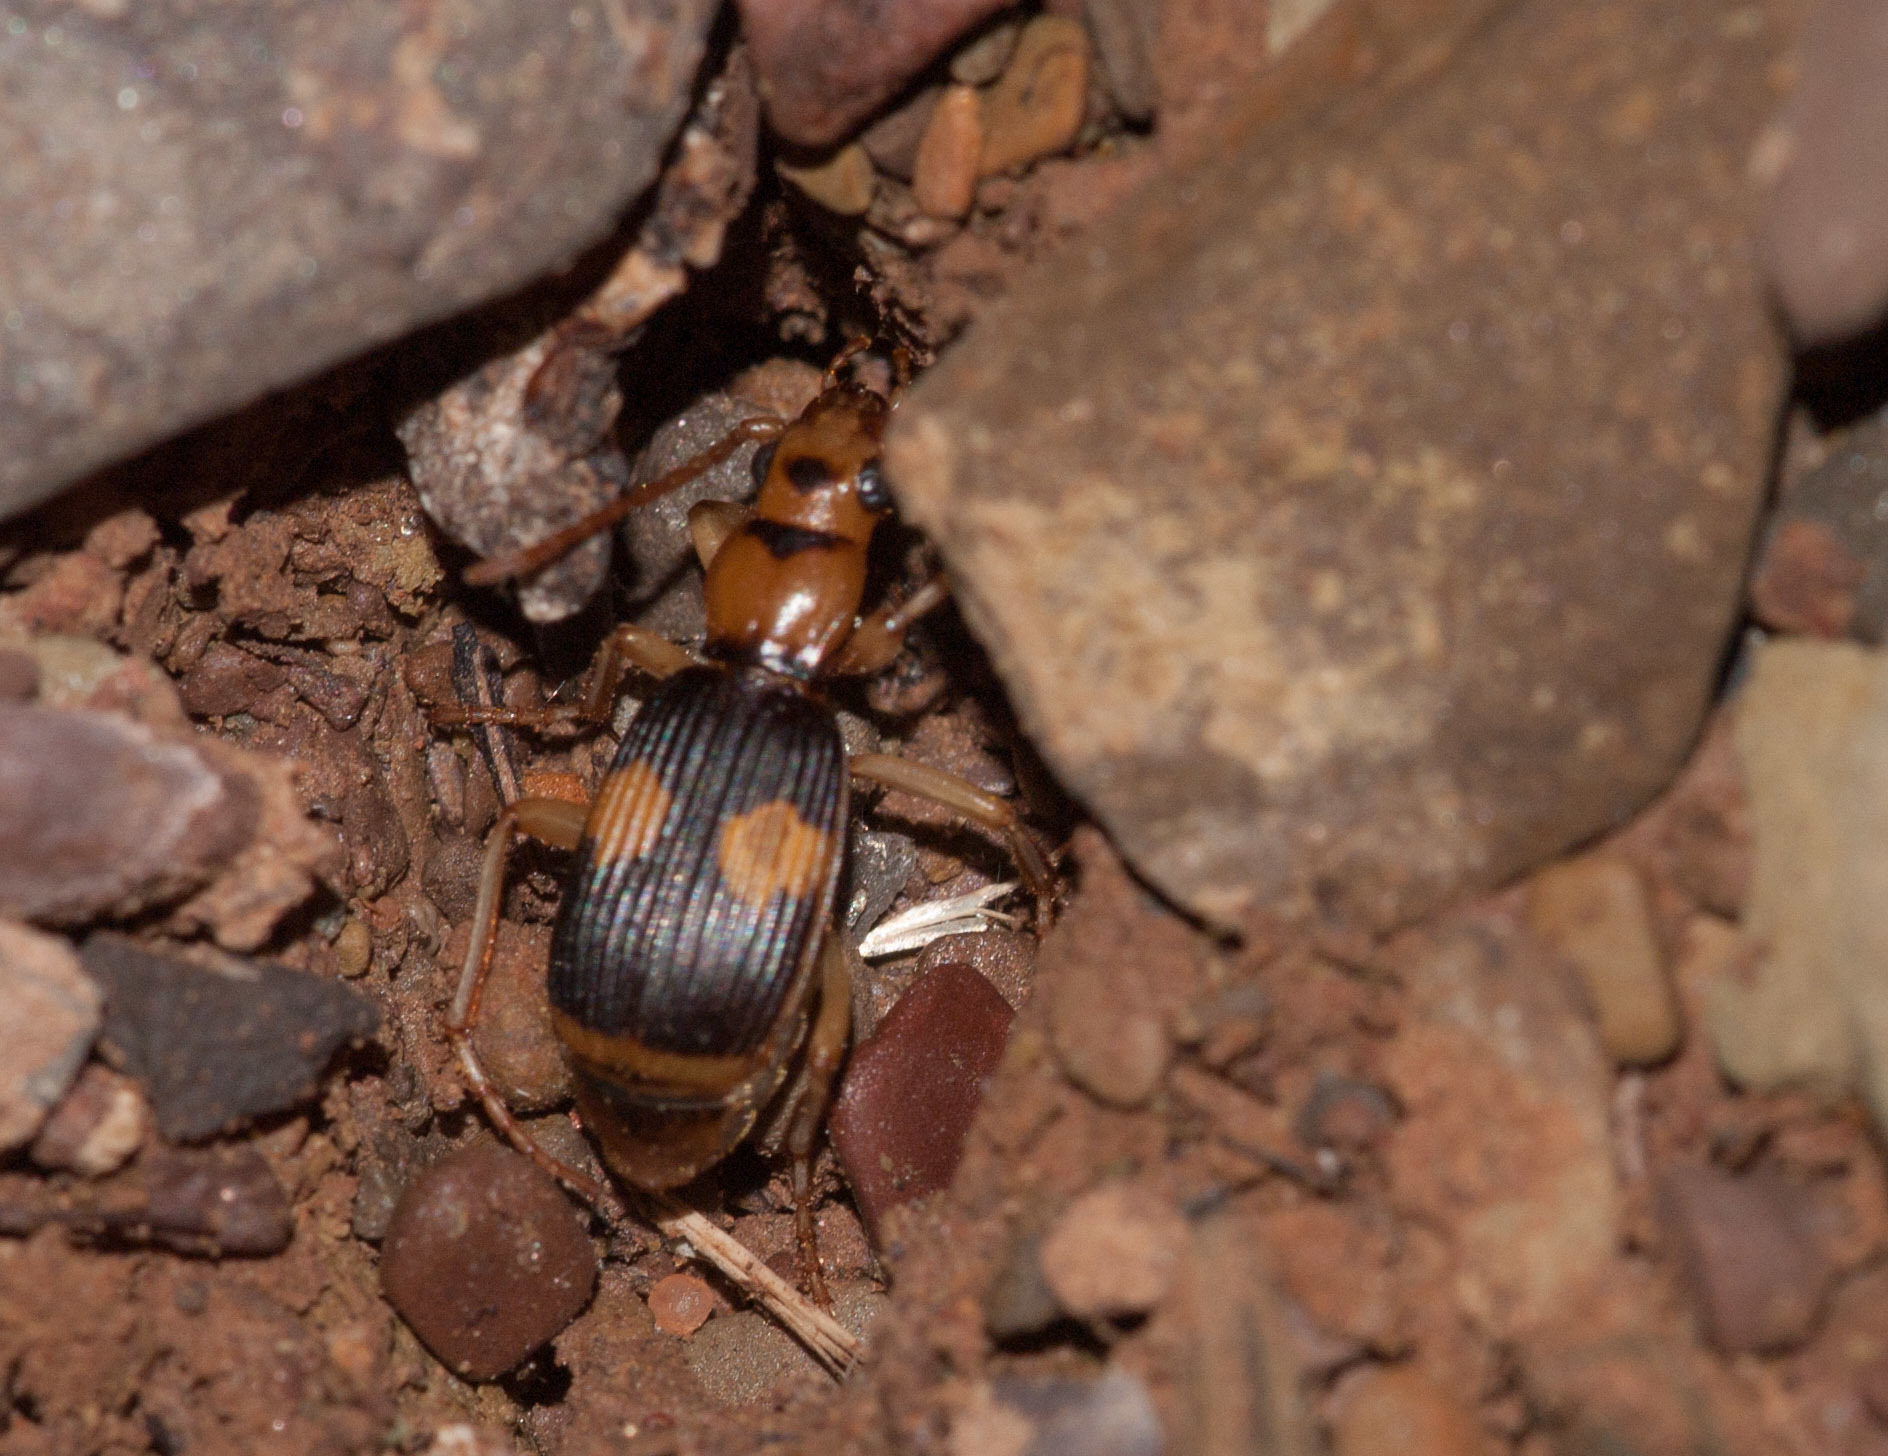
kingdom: Animalia
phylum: Arthropoda
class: Insecta
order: Coleoptera
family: Carabidae
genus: Pheropsophus
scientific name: Pheropsophus verticalis
